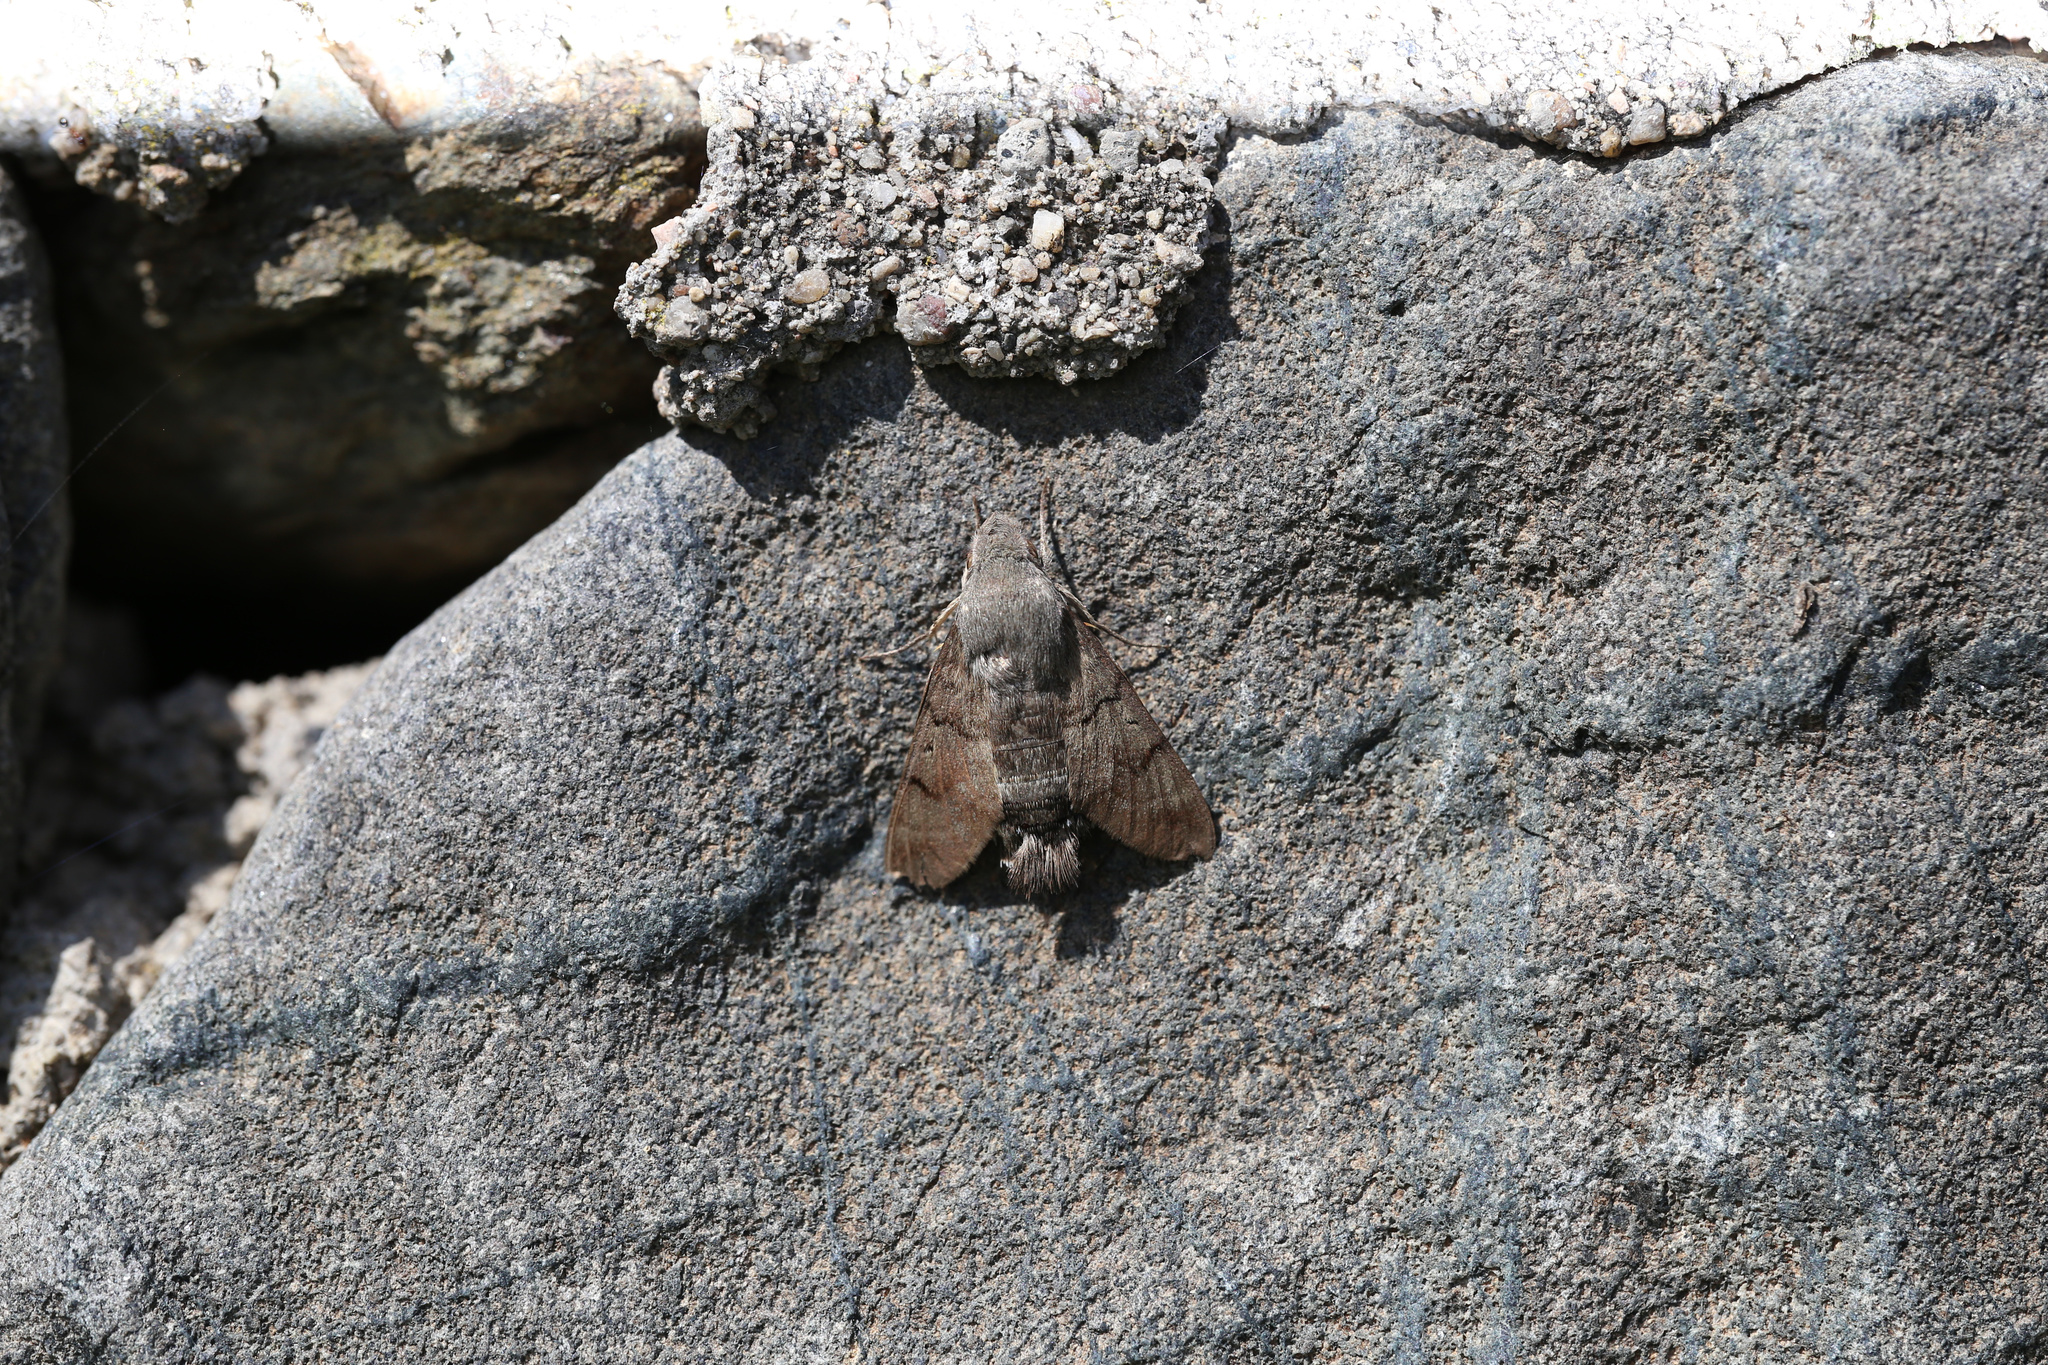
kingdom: Animalia
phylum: Arthropoda
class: Insecta
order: Lepidoptera
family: Sphingidae
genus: Macroglossum
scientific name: Macroglossum stellatarum
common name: Humming-bird hawk-moth
